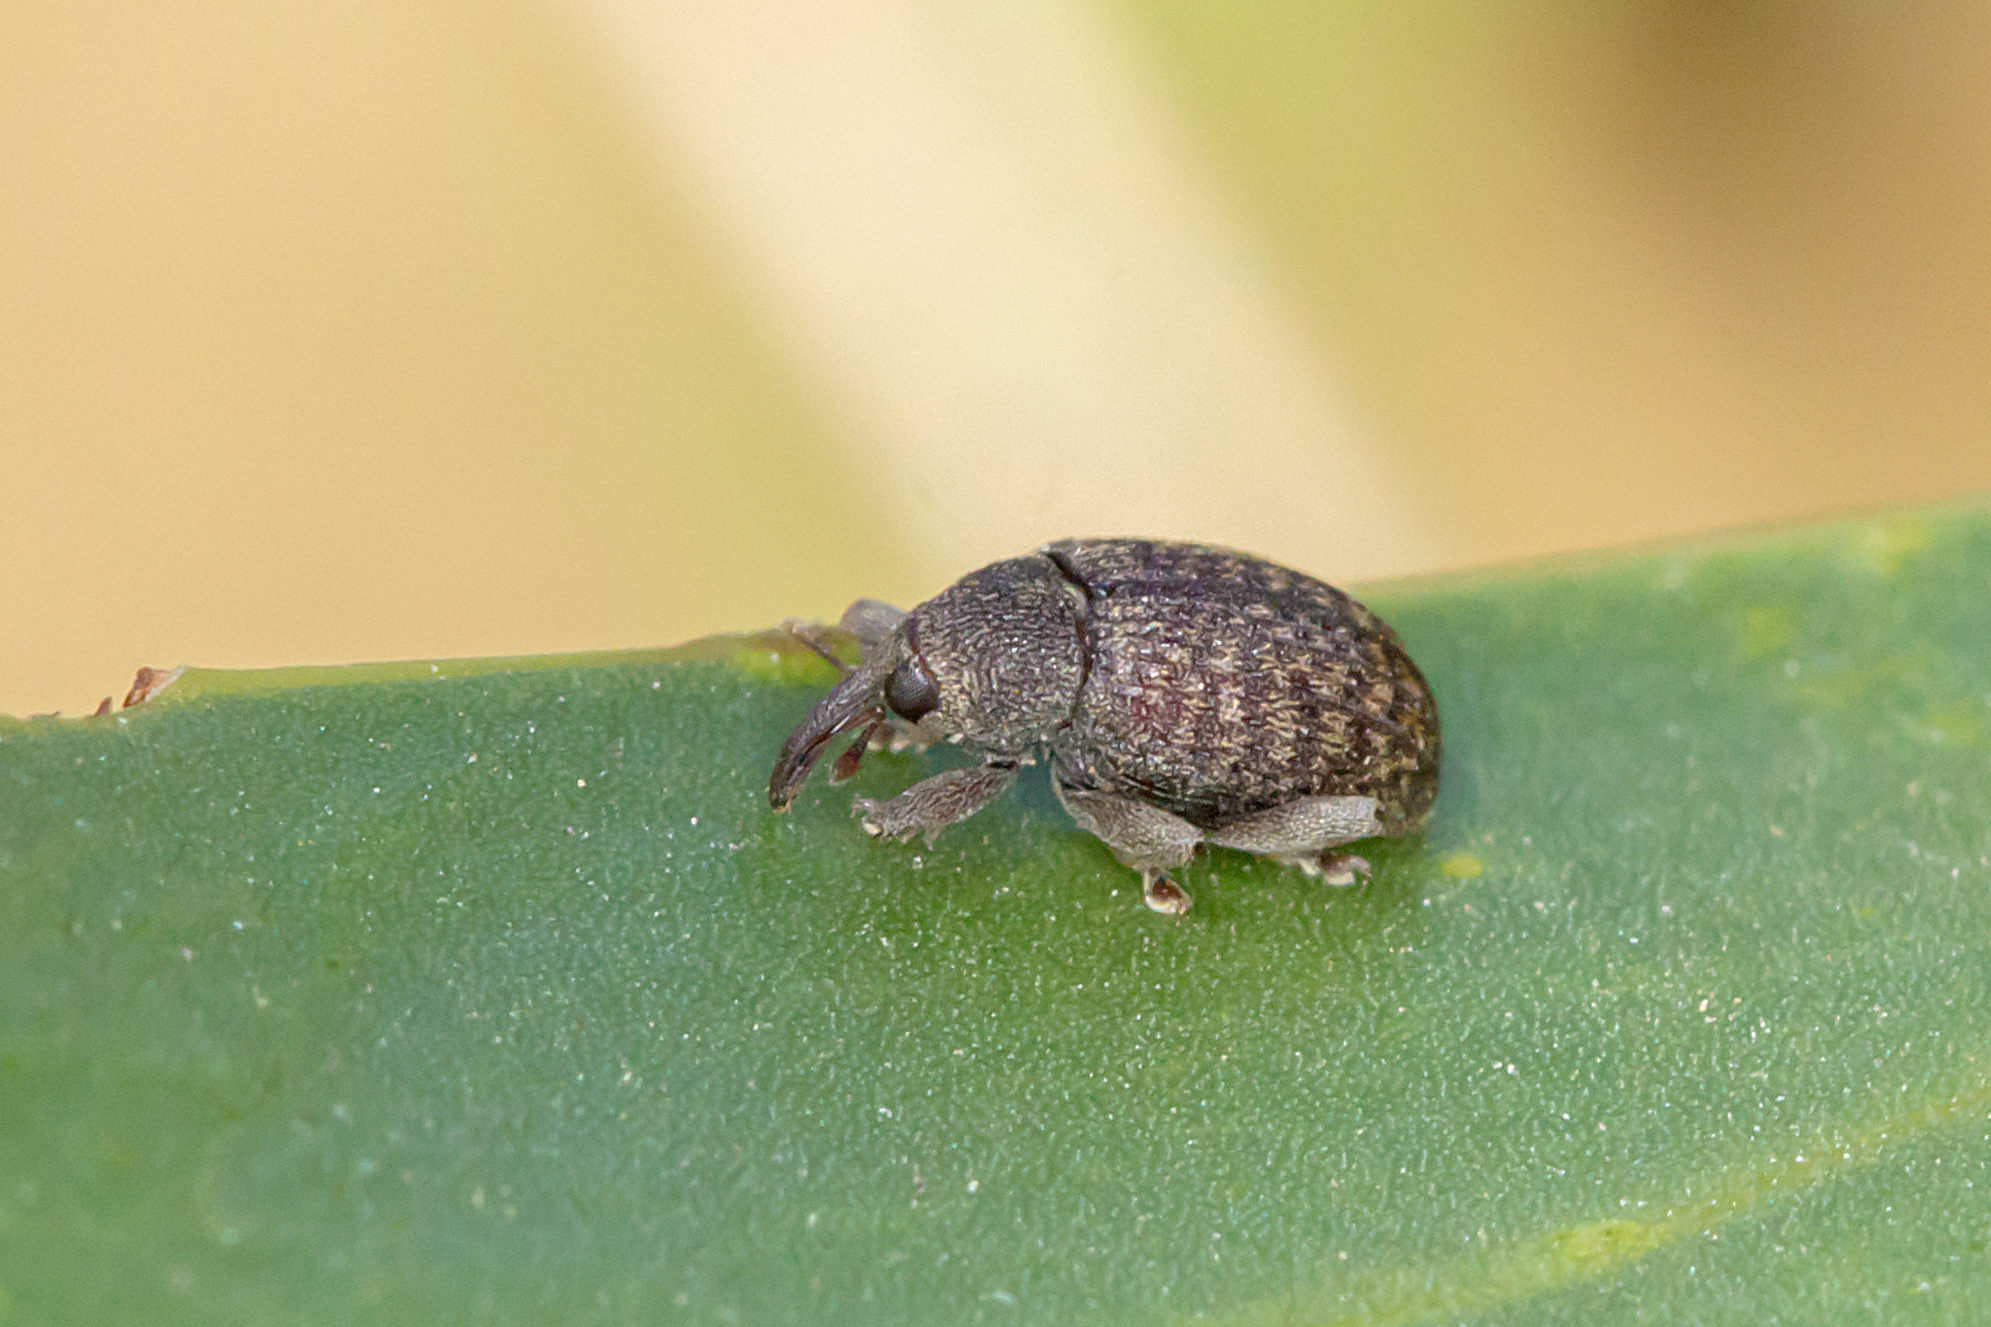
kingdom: Animalia
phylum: Arthropoda
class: Insecta
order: Coleoptera
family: Curculionidae
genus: Melanterius
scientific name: Melanterius maculatus
